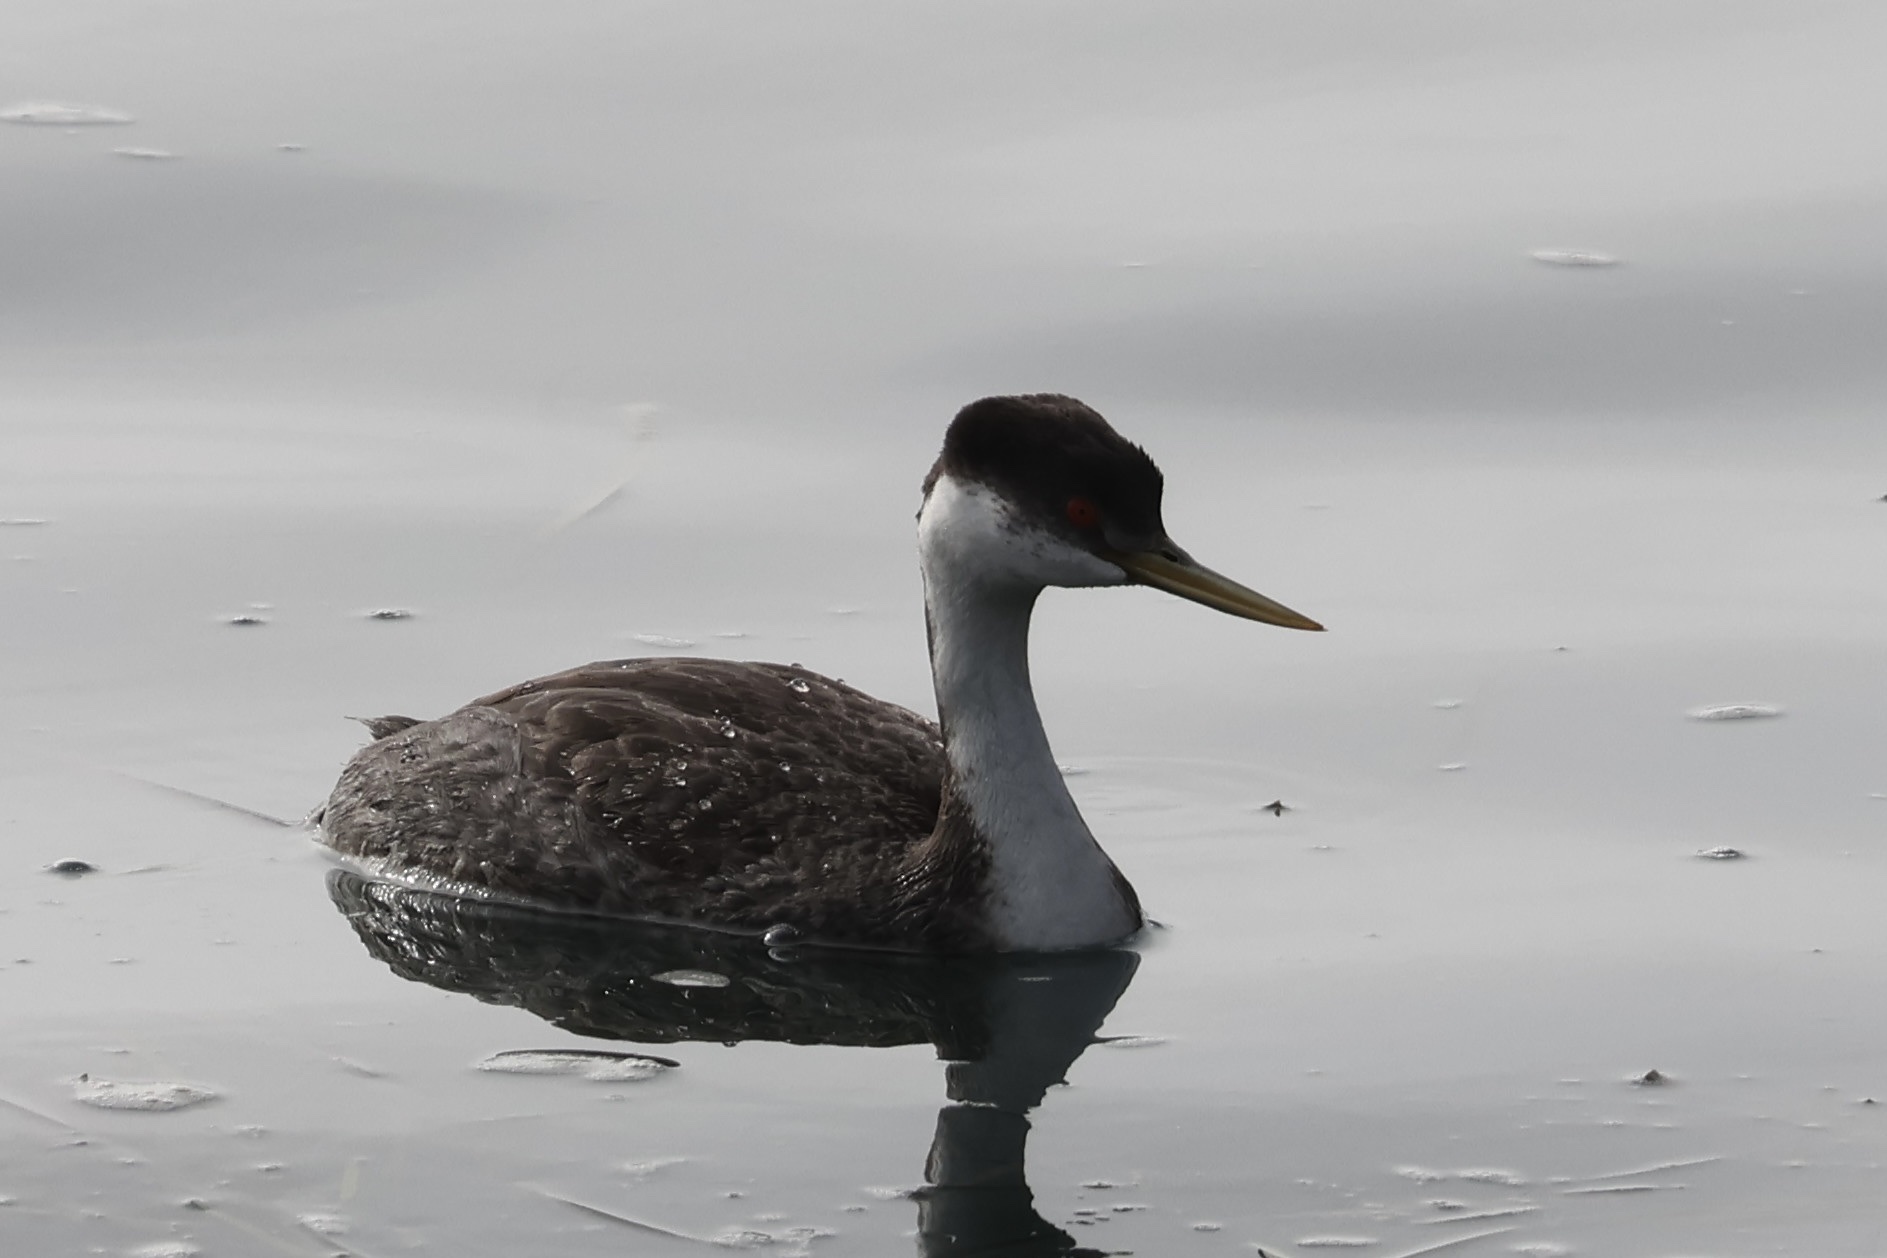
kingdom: Animalia
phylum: Chordata
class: Aves
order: Podicipediformes
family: Podicipedidae
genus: Aechmophorus
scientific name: Aechmophorus occidentalis
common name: Western grebe
